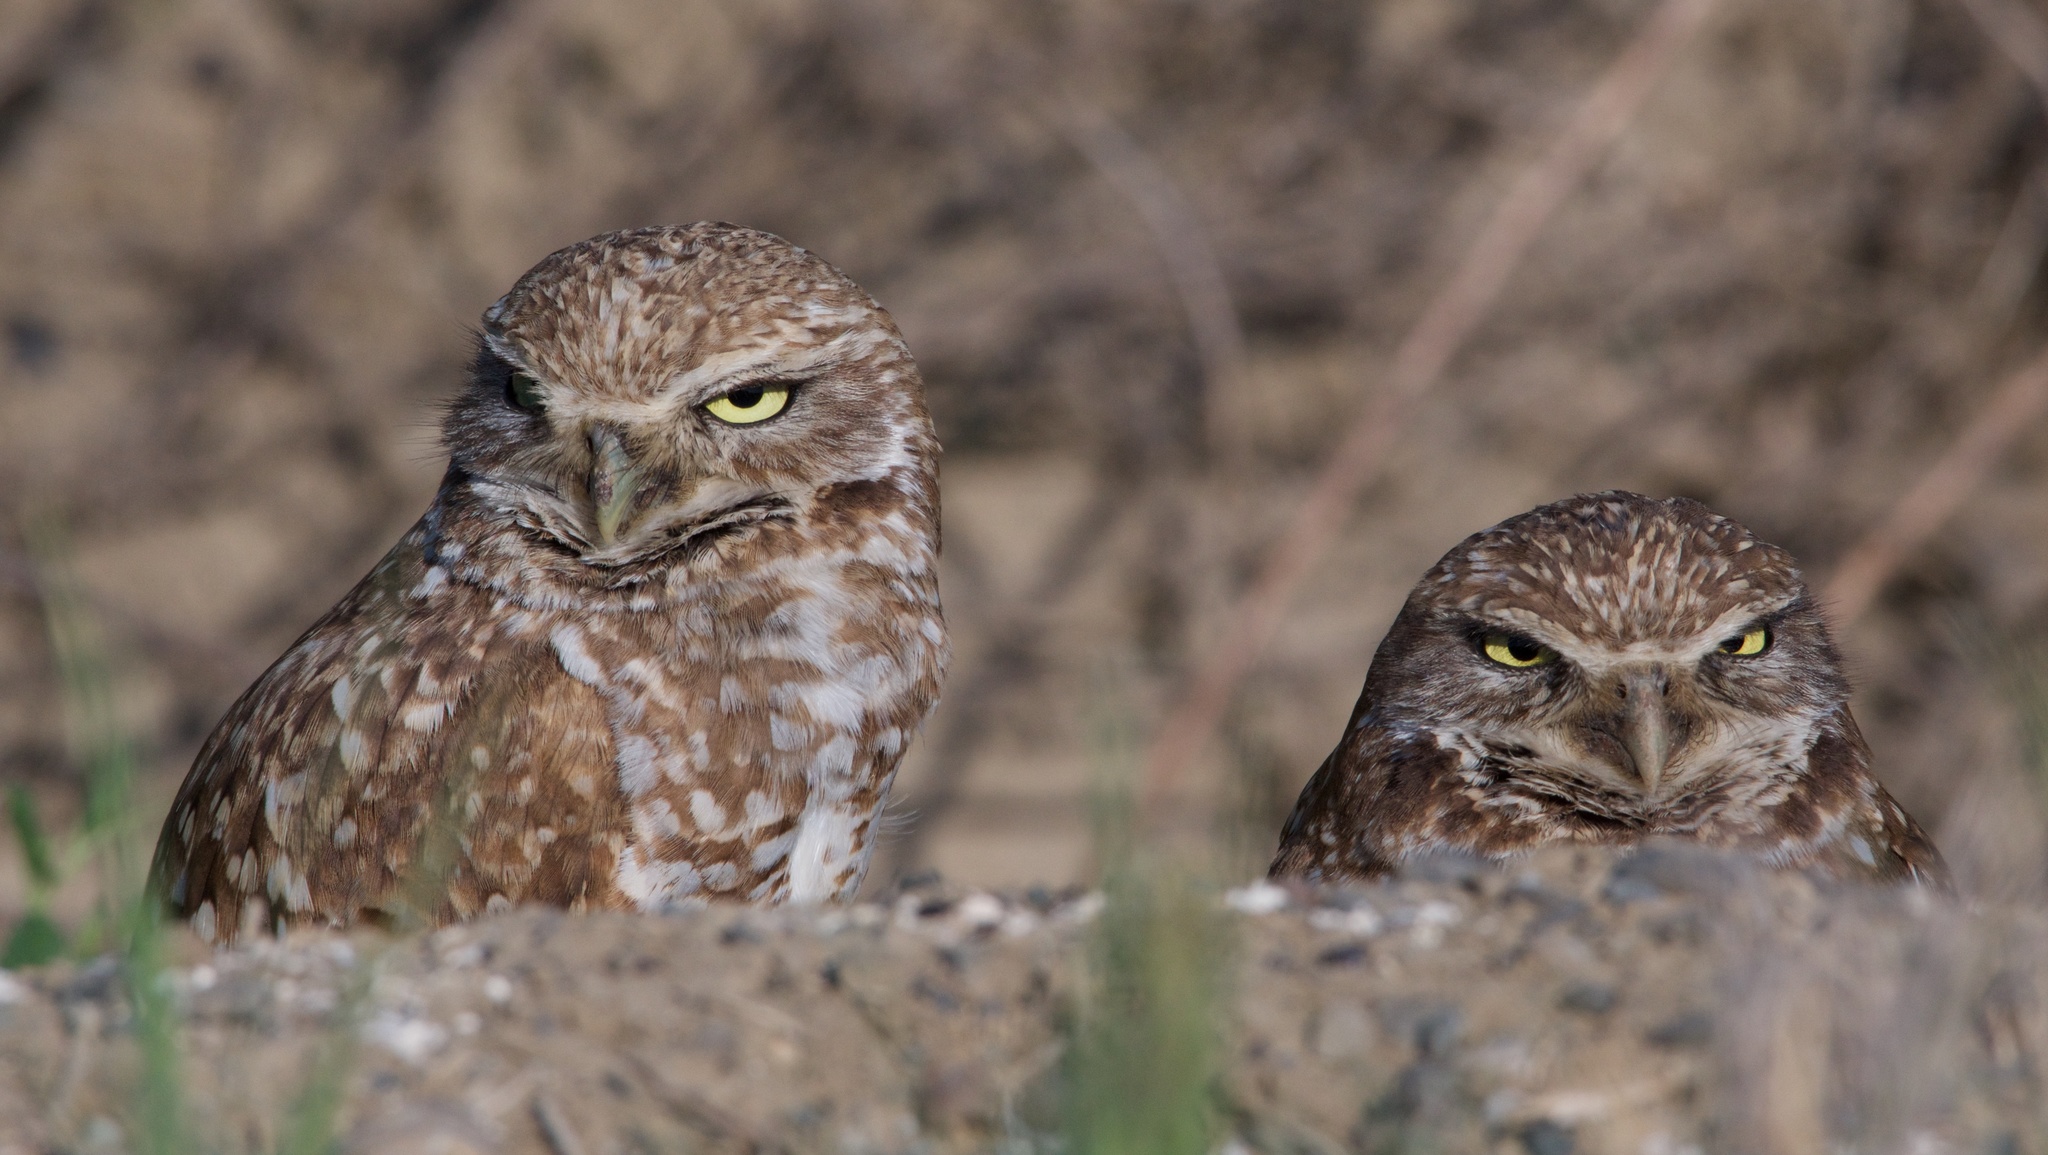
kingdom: Animalia
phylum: Chordata
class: Aves
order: Strigiformes
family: Strigidae
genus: Athene
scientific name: Athene cunicularia
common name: Burrowing owl
